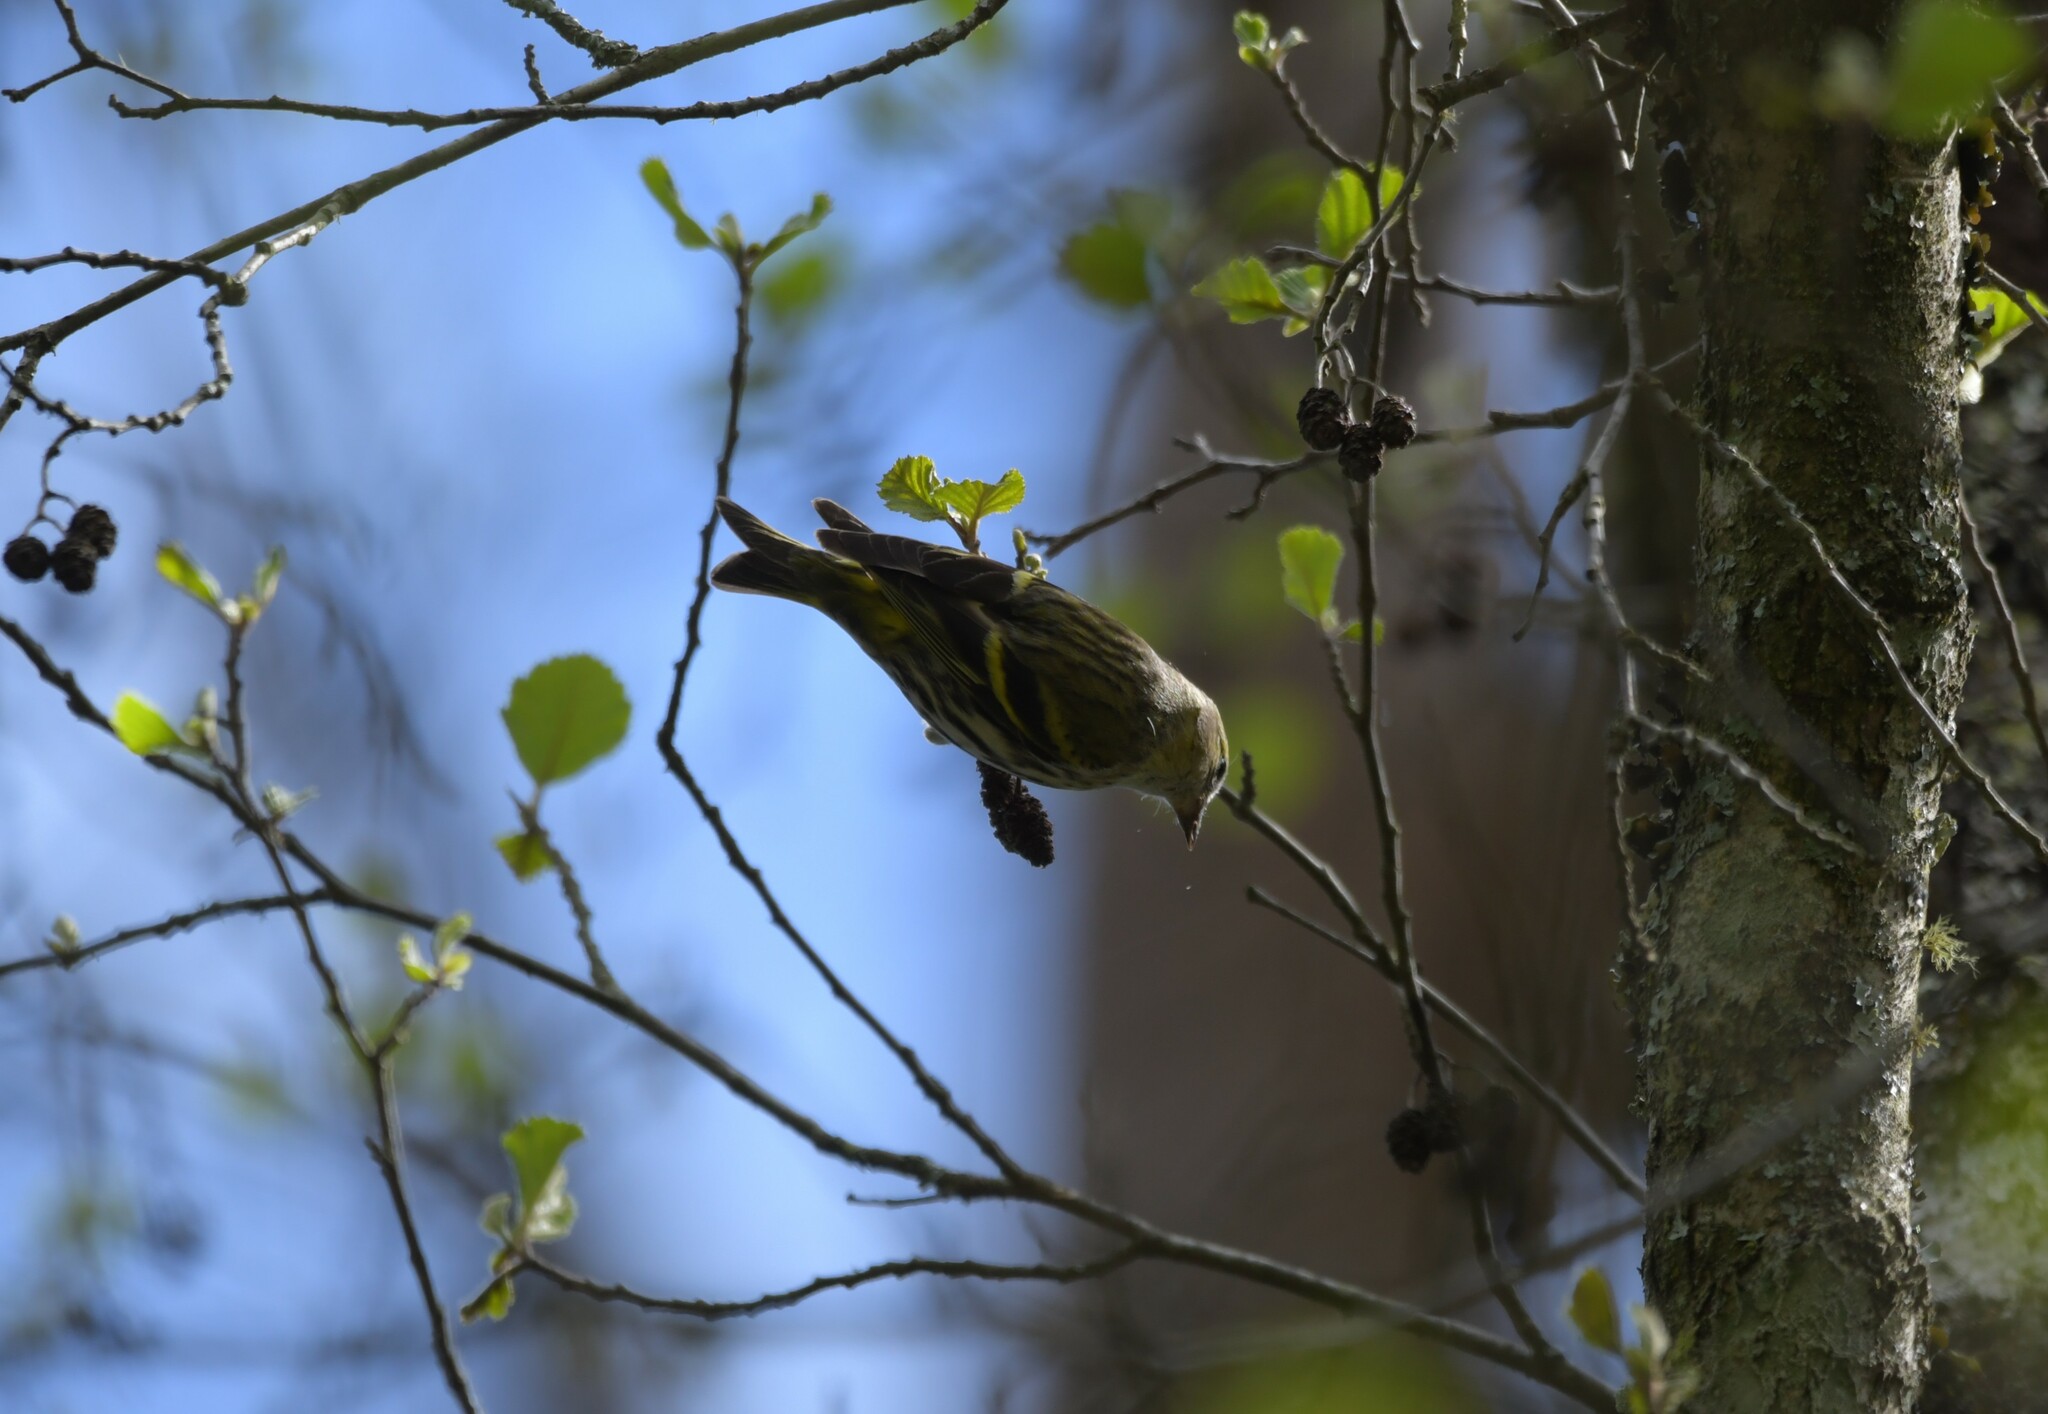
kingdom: Animalia
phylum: Chordata
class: Aves
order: Passeriformes
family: Fringillidae
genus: Spinus
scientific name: Spinus spinus
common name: Eurasian siskin
